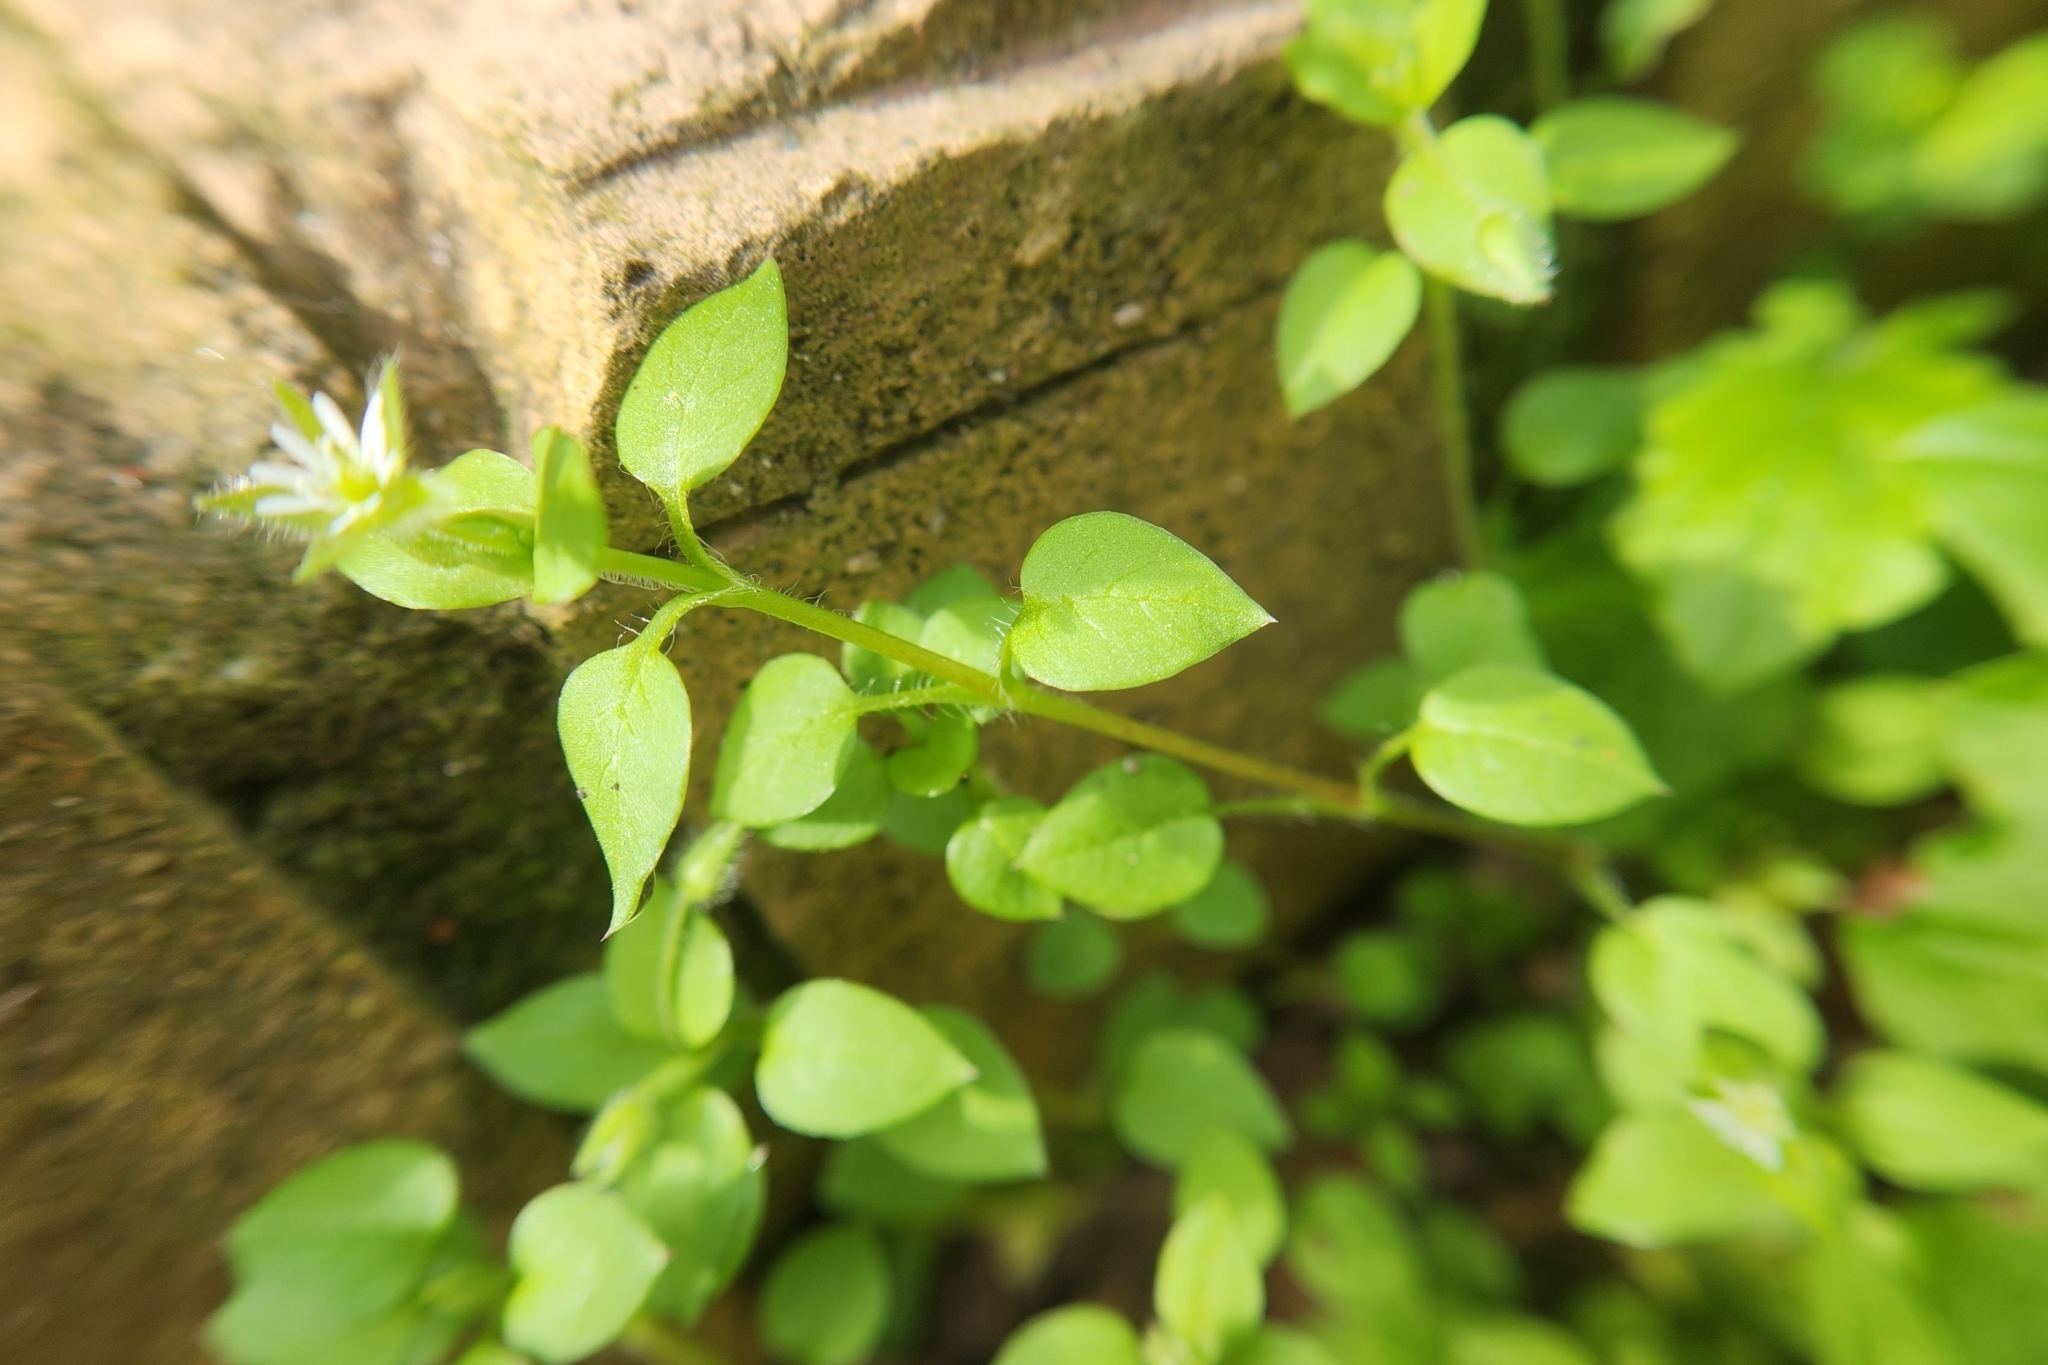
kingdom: Plantae
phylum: Tracheophyta
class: Magnoliopsida
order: Caryophyllales
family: Caryophyllaceae
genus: Stellaria
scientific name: Stellaria media
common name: Common chickweed
